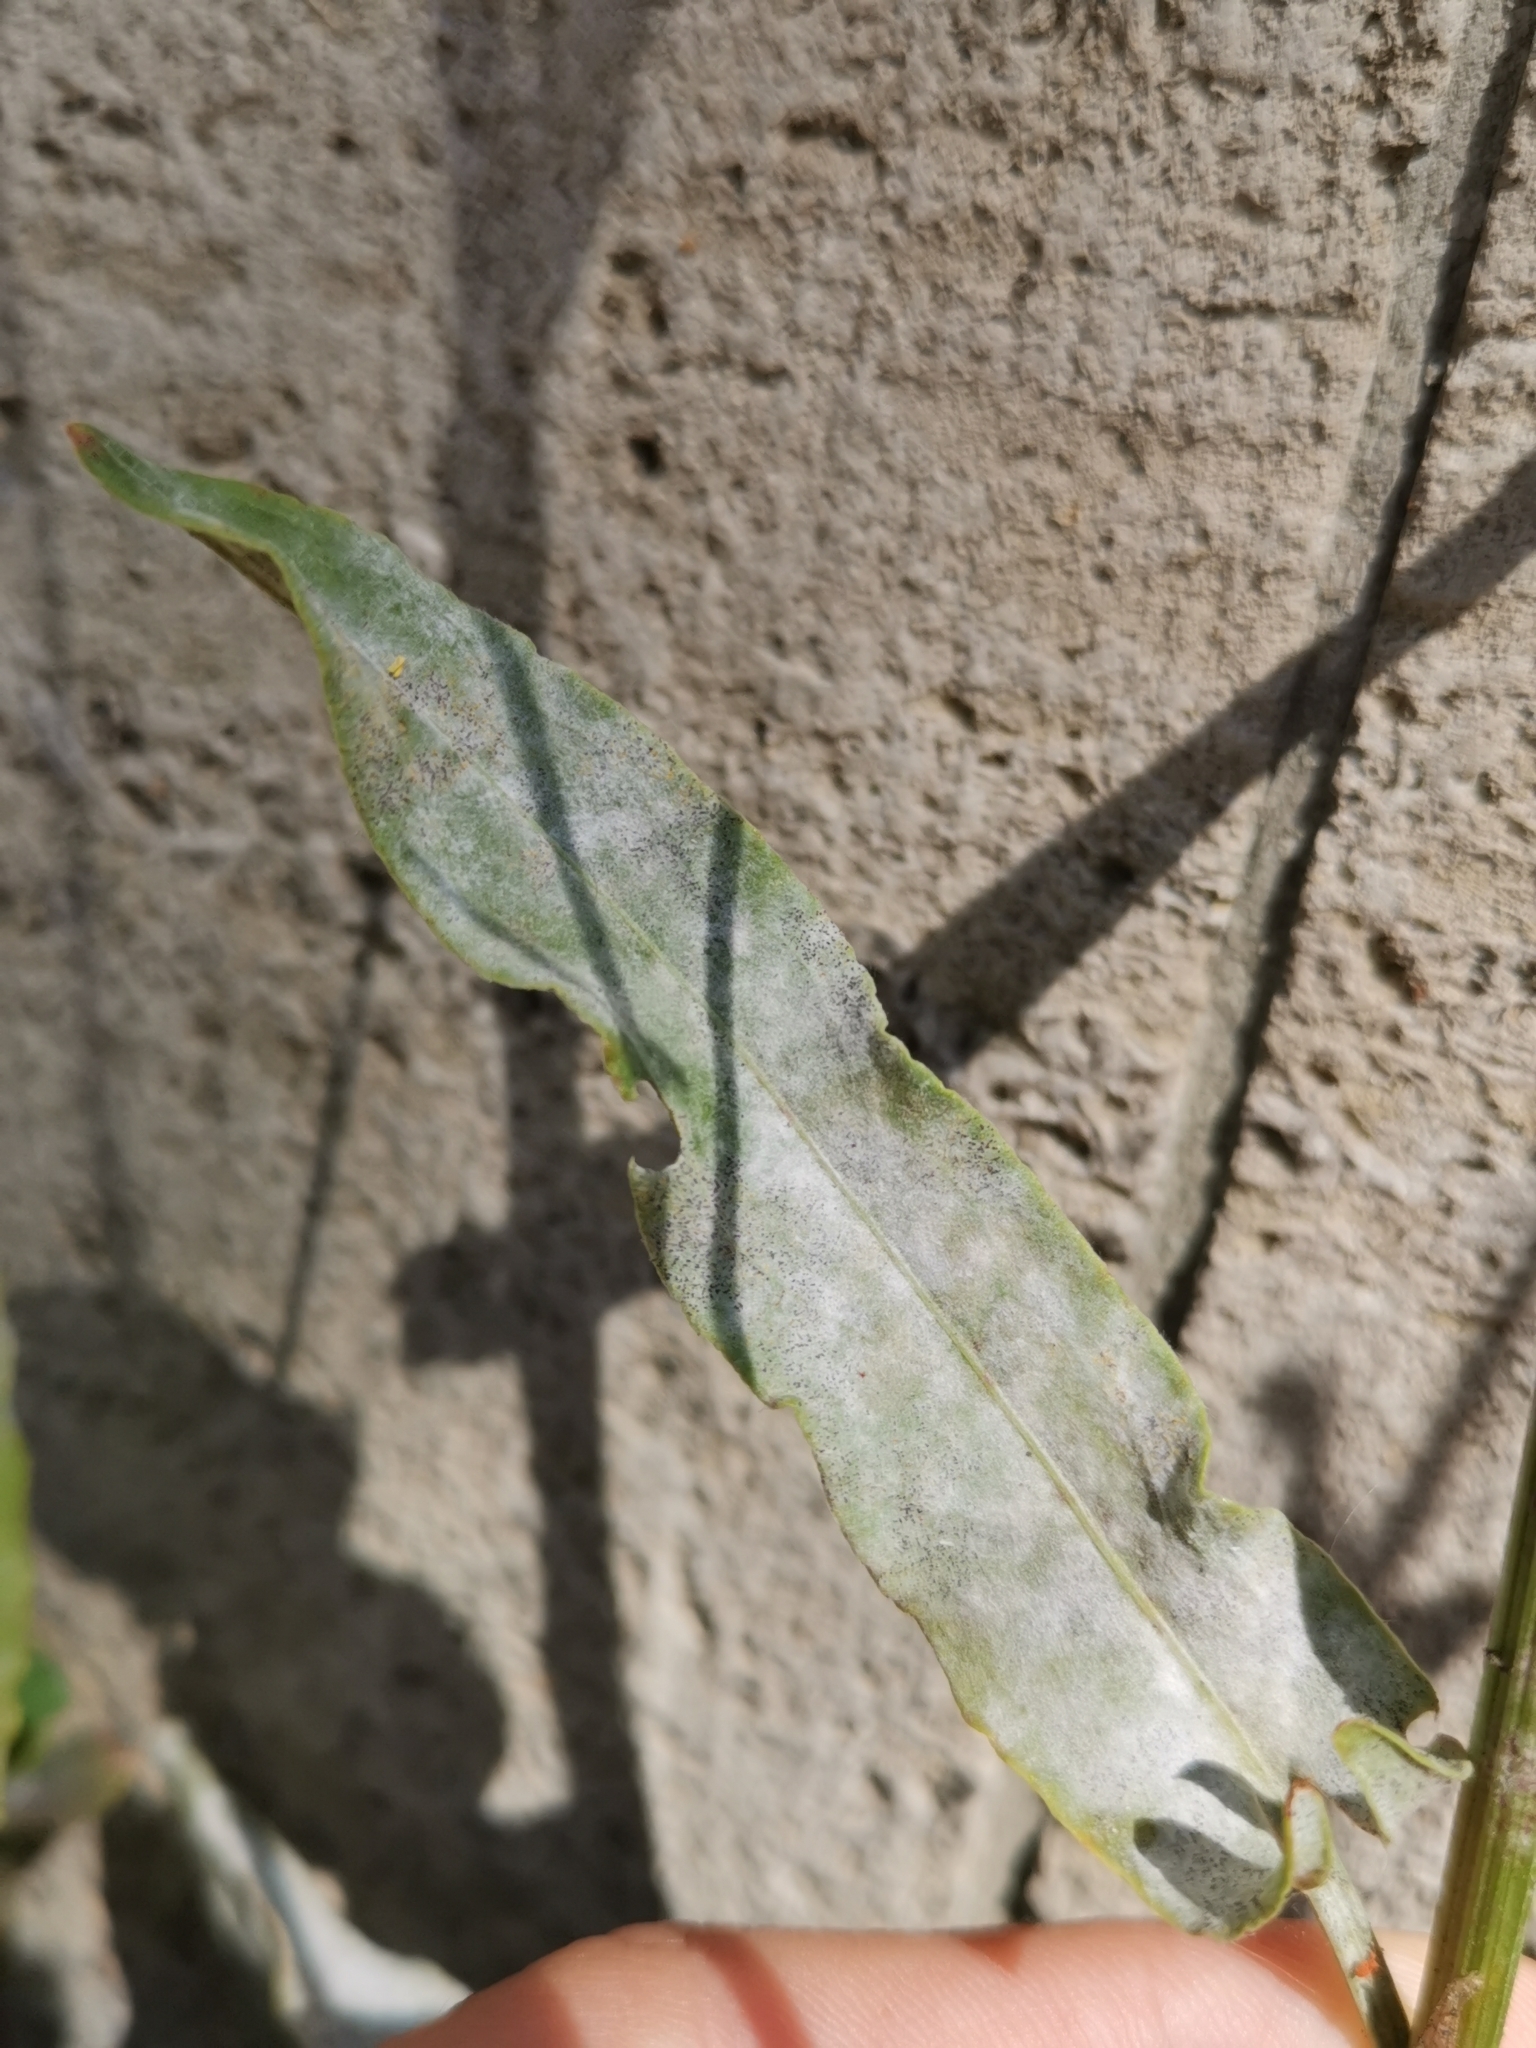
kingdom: Fungi
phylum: Ascomycota
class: Leotiomycetes
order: Helotiales
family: Erysiphaceae
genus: Erysiphe
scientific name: Erysiphe polygoni
